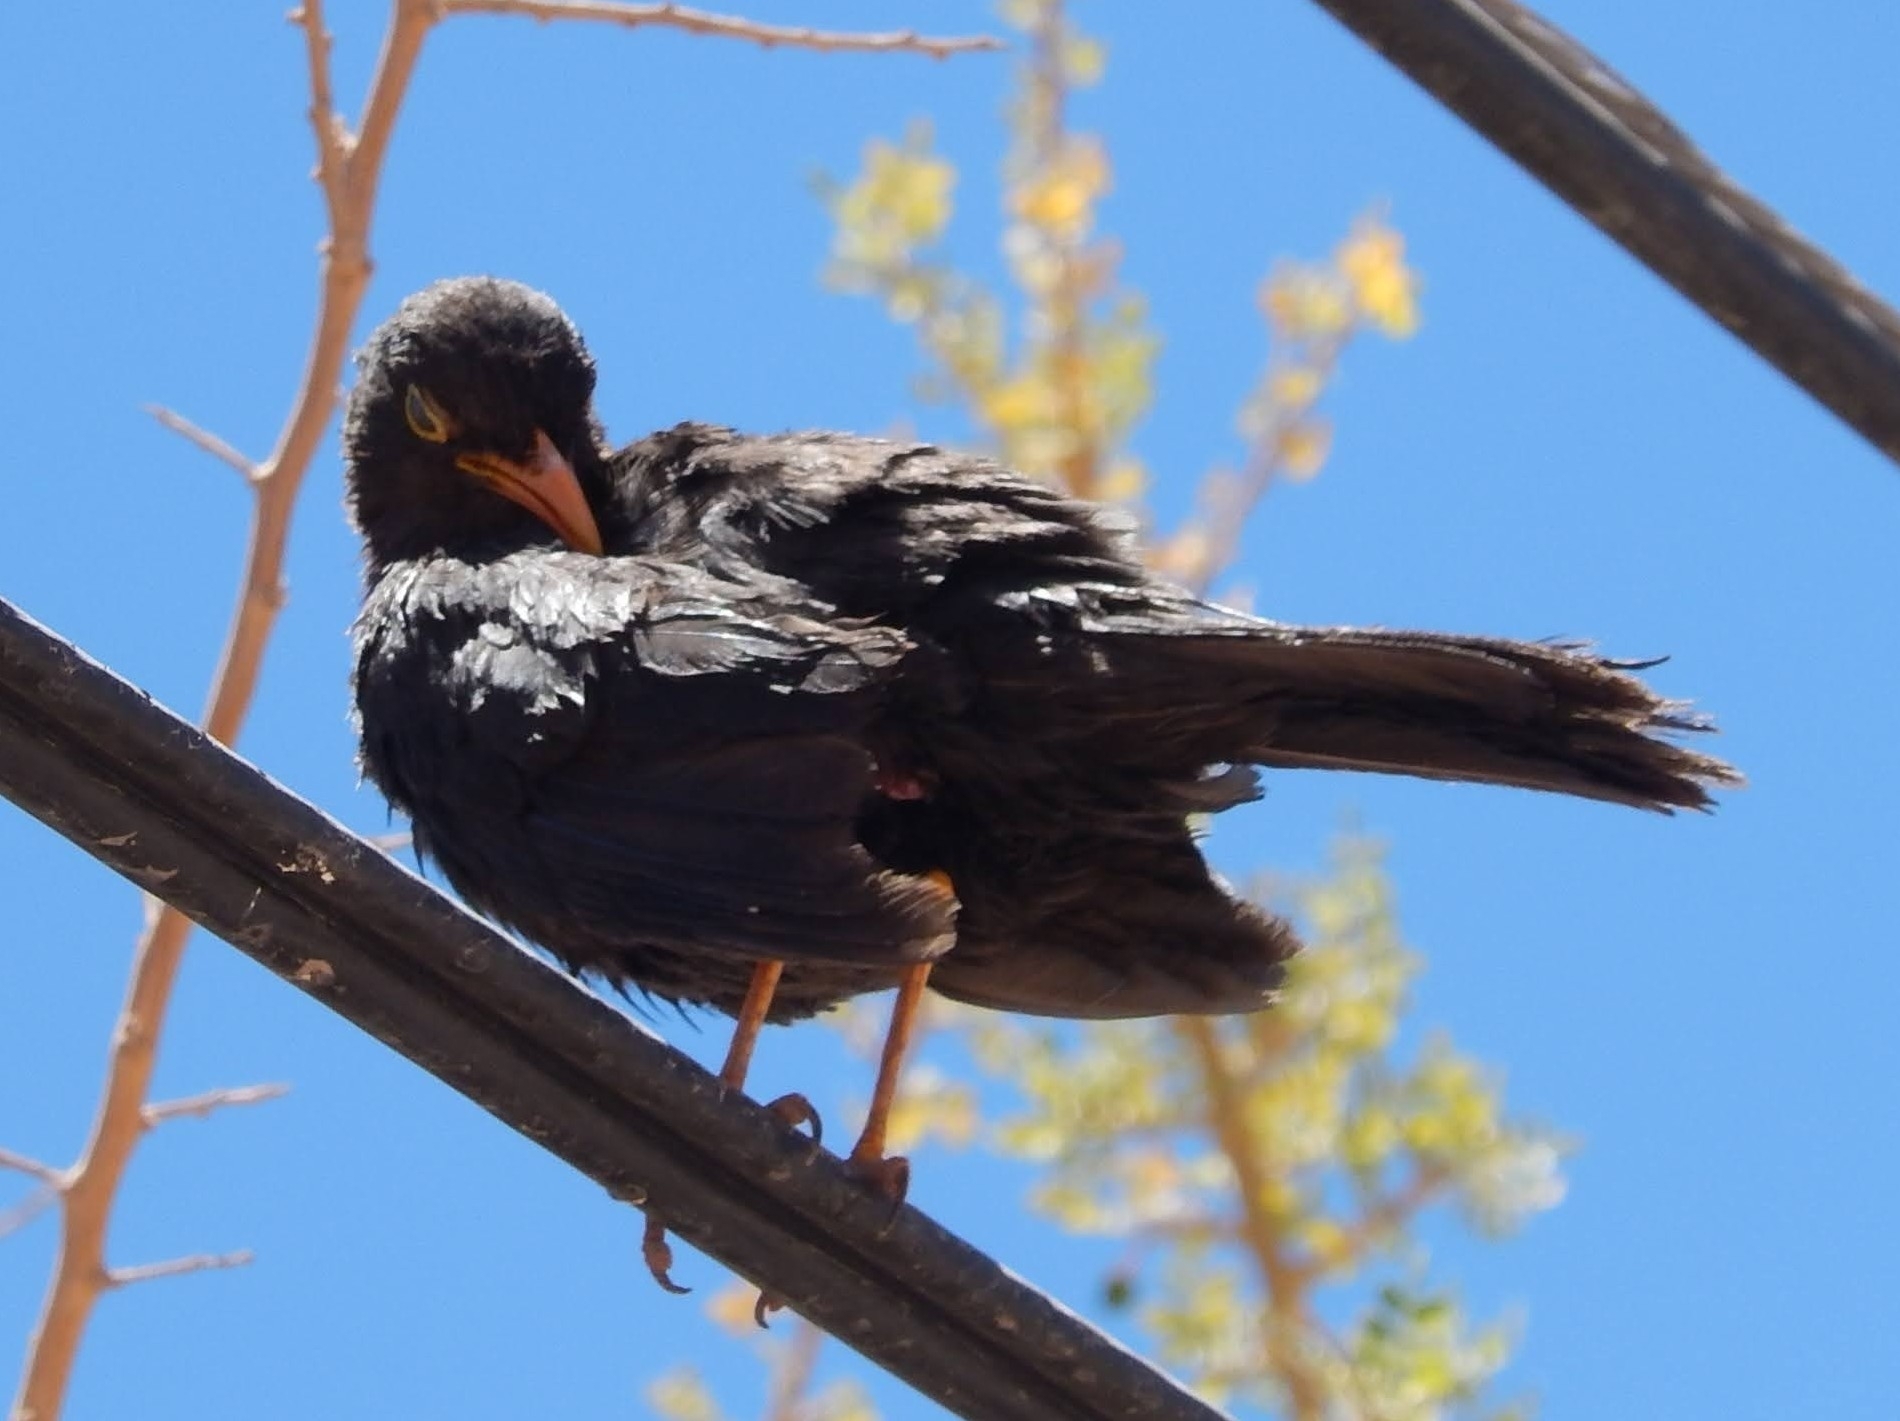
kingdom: Animalia
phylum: Chordata
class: Aves
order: Passeriformes
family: Turdidae
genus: Turdus
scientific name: Turdus chiguanco
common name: Chiguanco thrush
